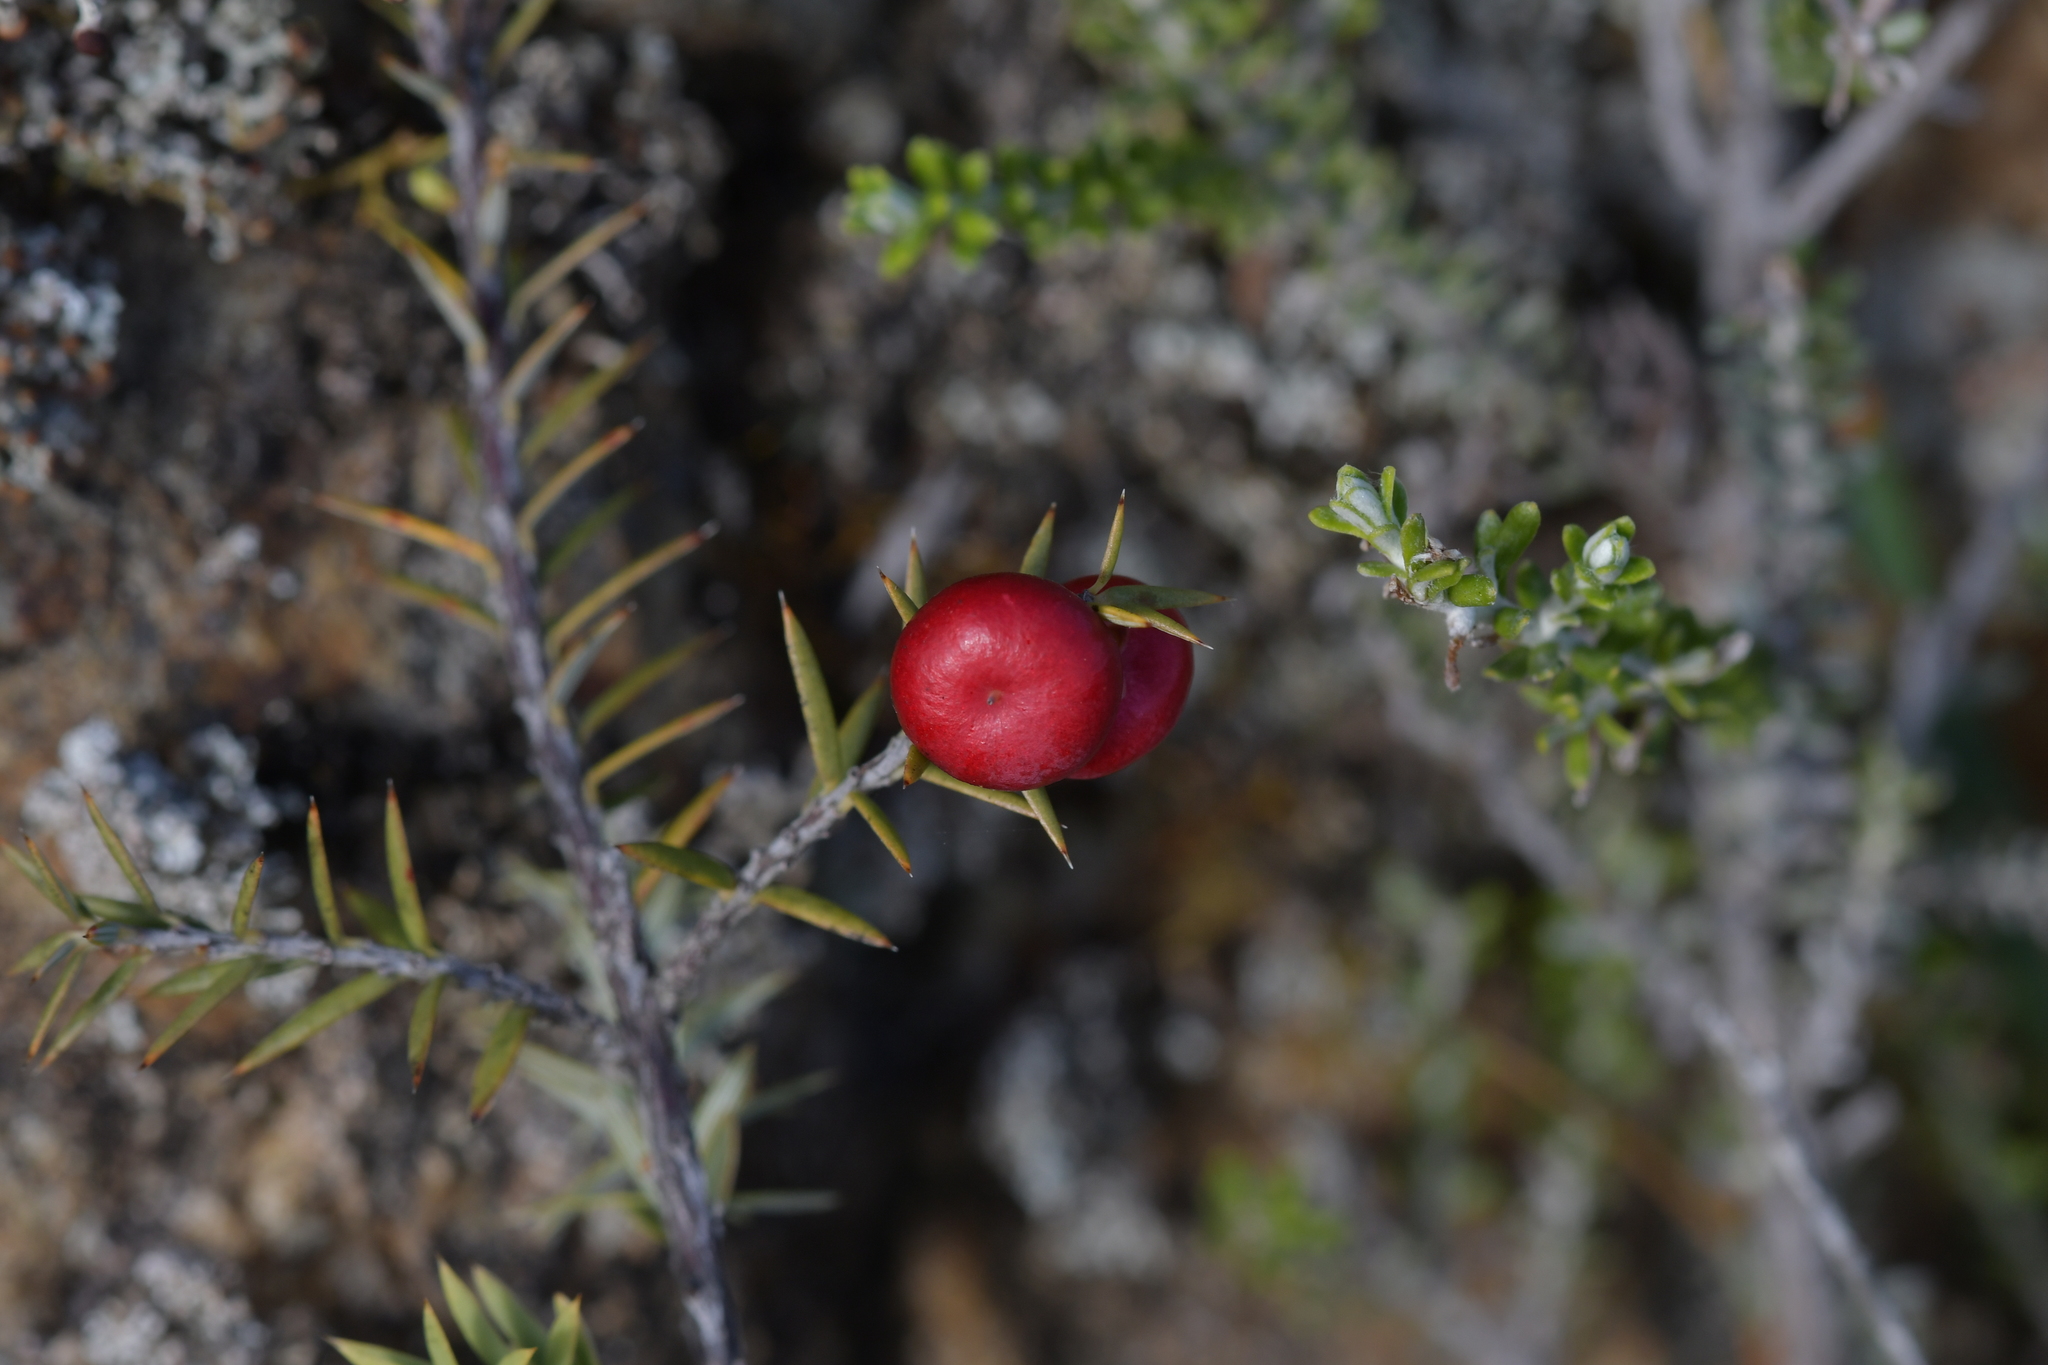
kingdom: Plantae
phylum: Tracheophyta
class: Magnoliopsida
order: Ericales
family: Ericaceae
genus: Leptecophylla
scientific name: Leptecophylla juniperina
